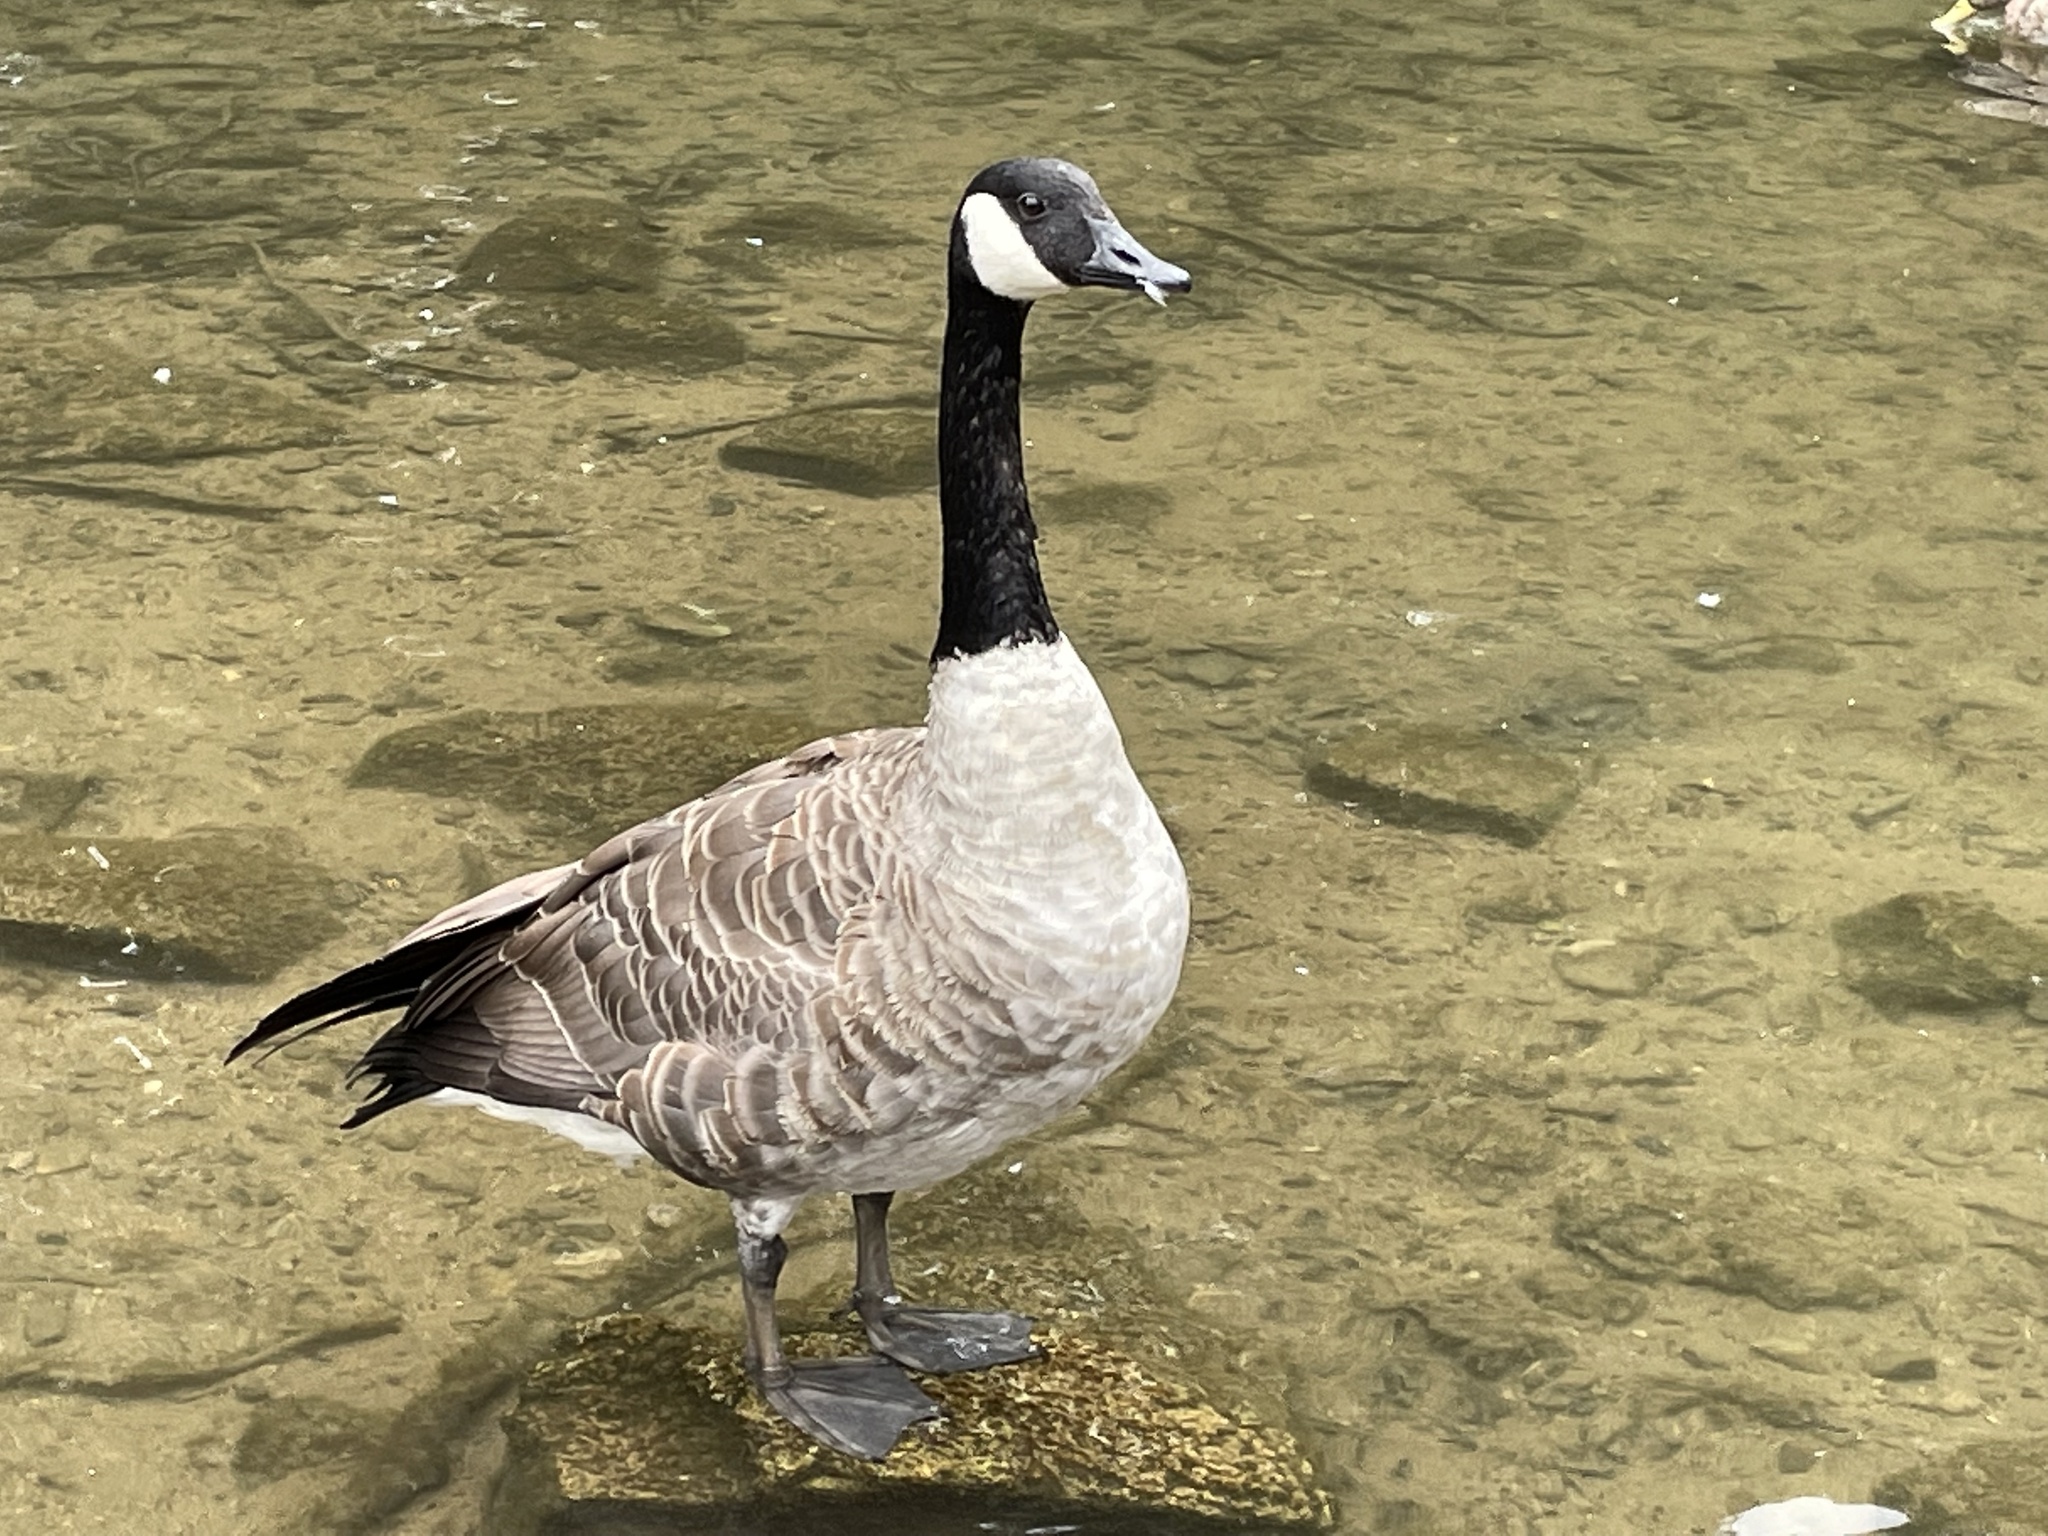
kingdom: Animalia
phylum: Chordata
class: Aves
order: Anseriformes
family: Anatidae
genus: Branta
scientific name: Branta canadensis
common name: Canada goose
